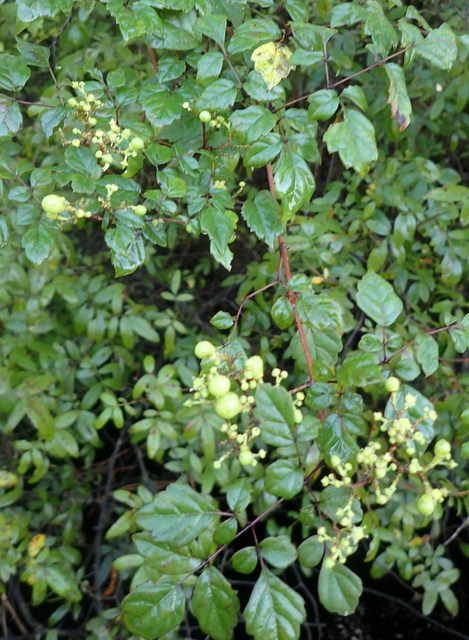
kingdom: Plantae
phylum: Tracheophyta
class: Magnoliopsida
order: Vitales
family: Vitaceae
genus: Nekemias
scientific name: Nekemias arborea
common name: Peppervine
